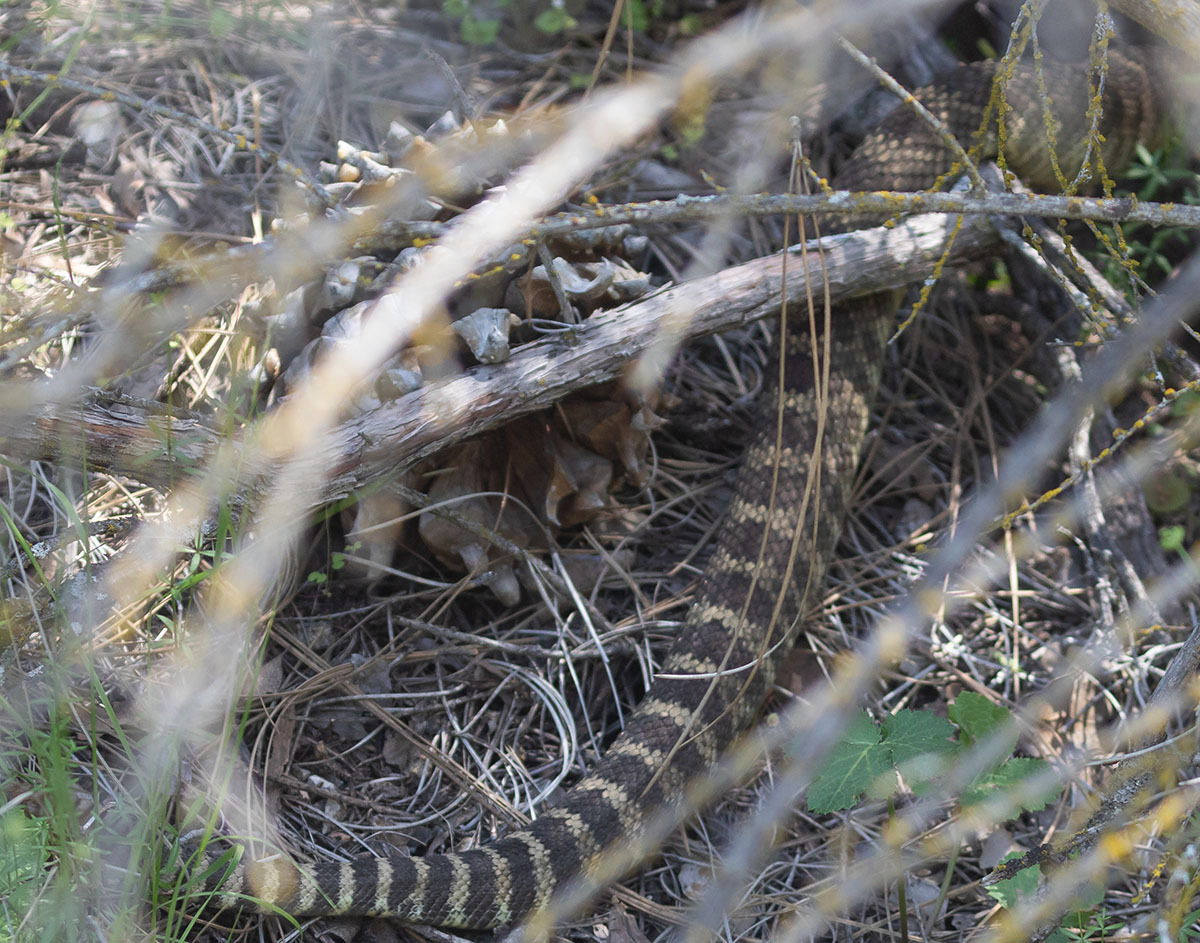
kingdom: Animalia
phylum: Chordata
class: Squamata
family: Viperidae
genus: Crotalus
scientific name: Crotalus oreganus
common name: Abyssus
